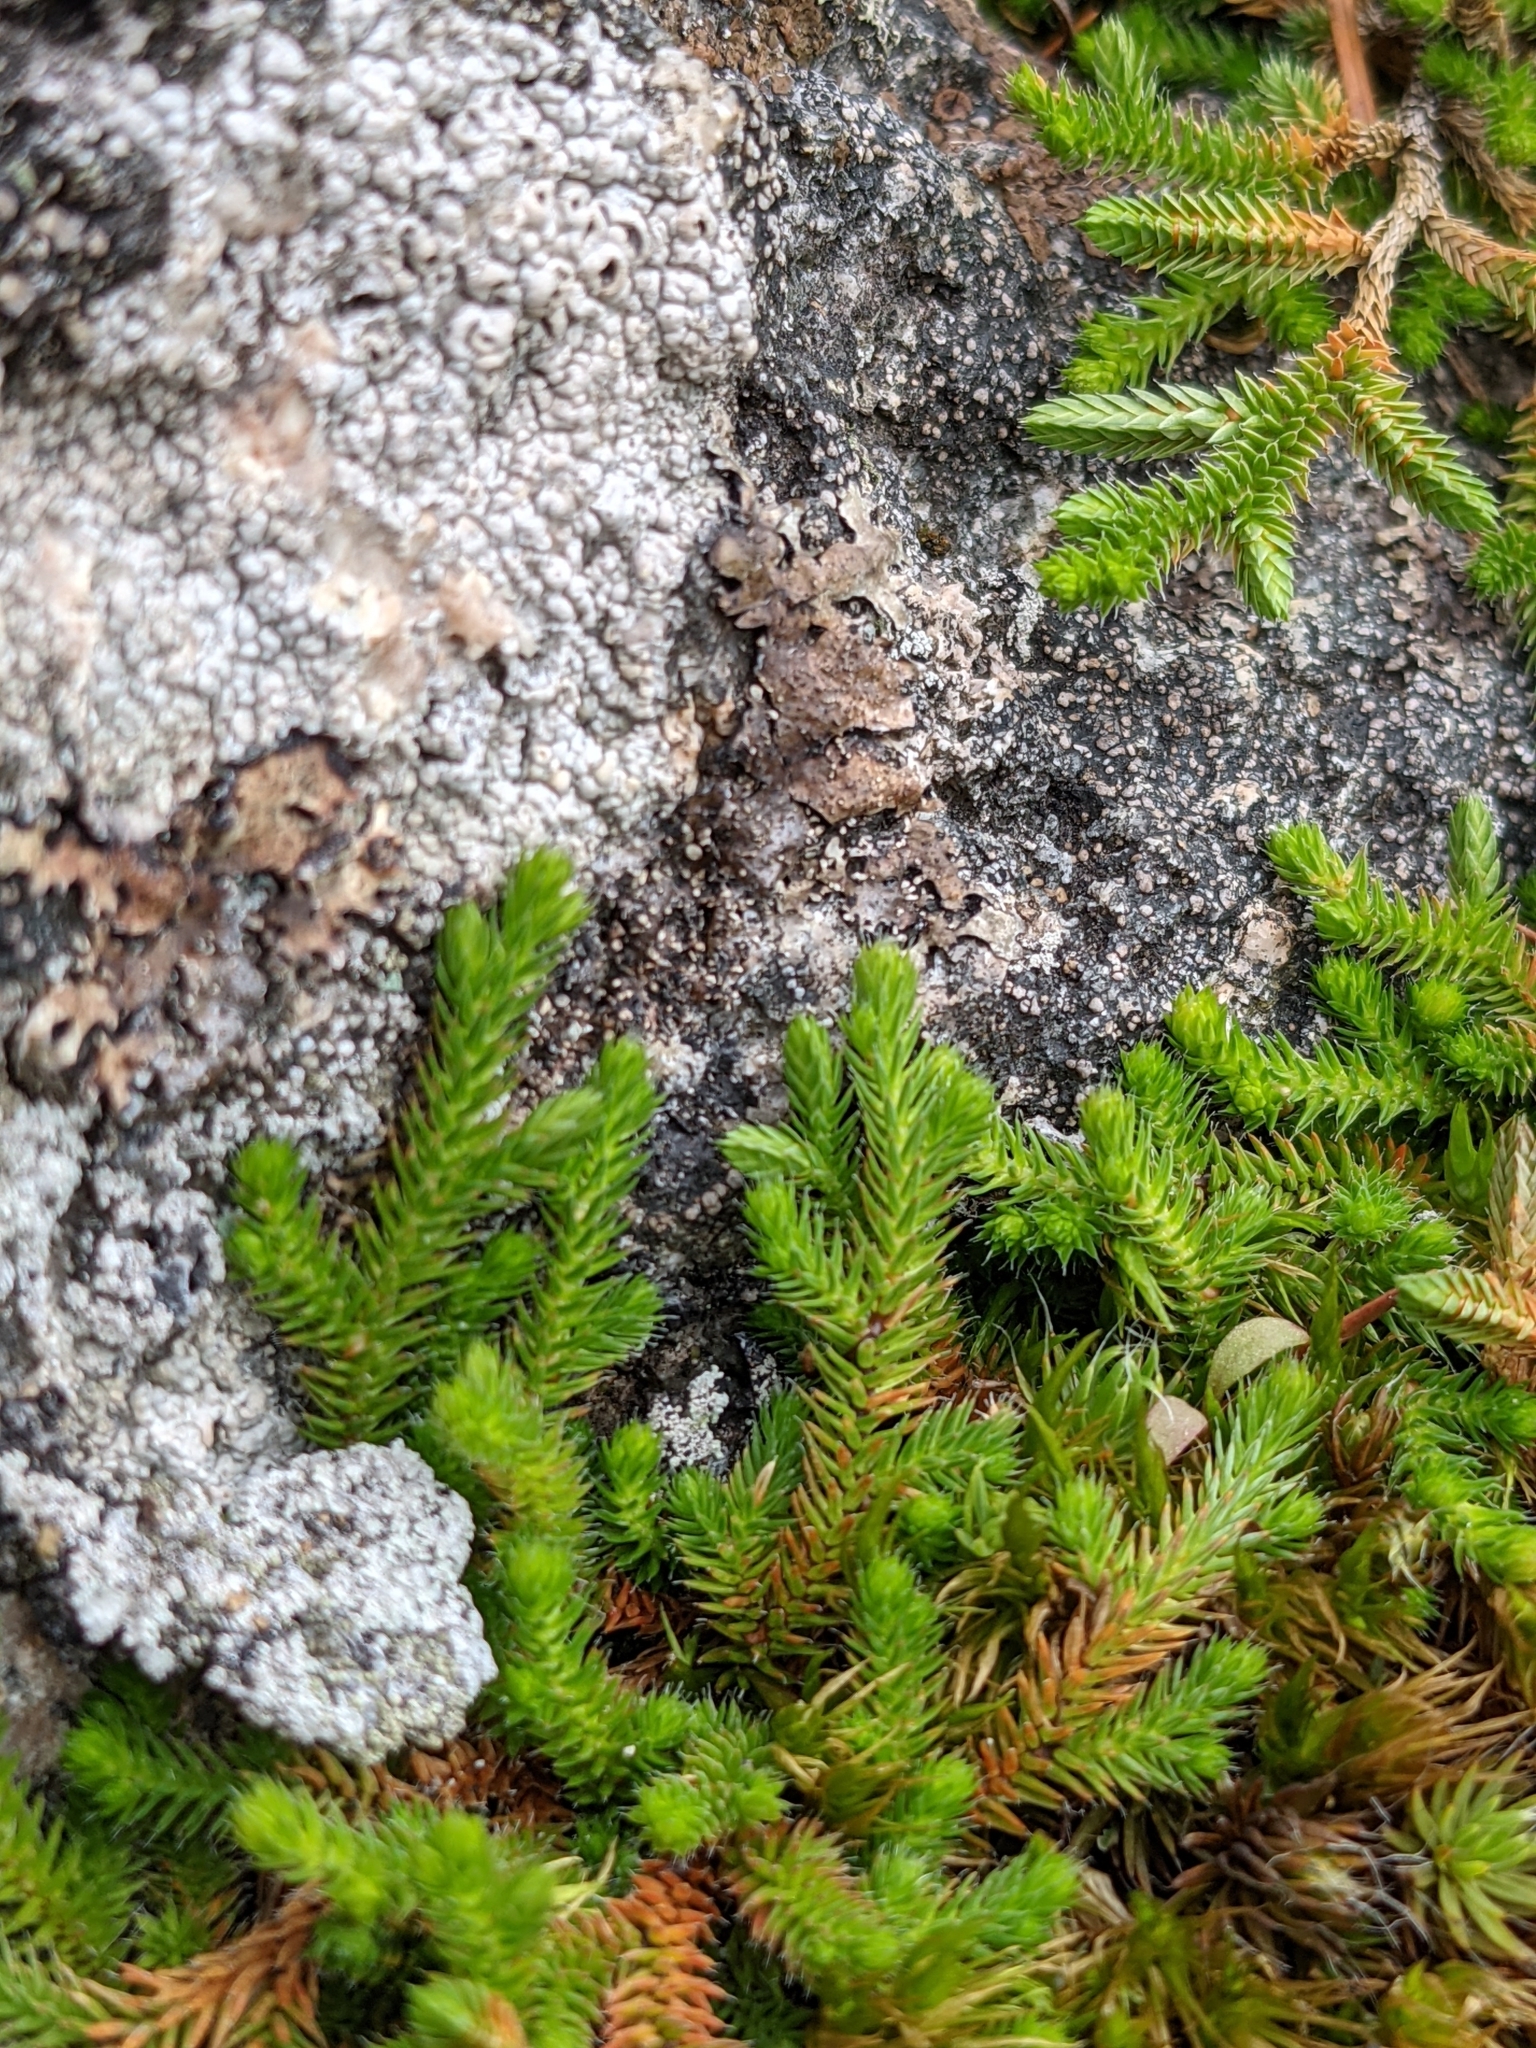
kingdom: Plantae
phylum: Tracheophyta
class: Lycopodiopsida
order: Selaginellales
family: Selaginellaceae
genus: Selaginella
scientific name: Selaginella wallacei
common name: Wallace's selaginella
